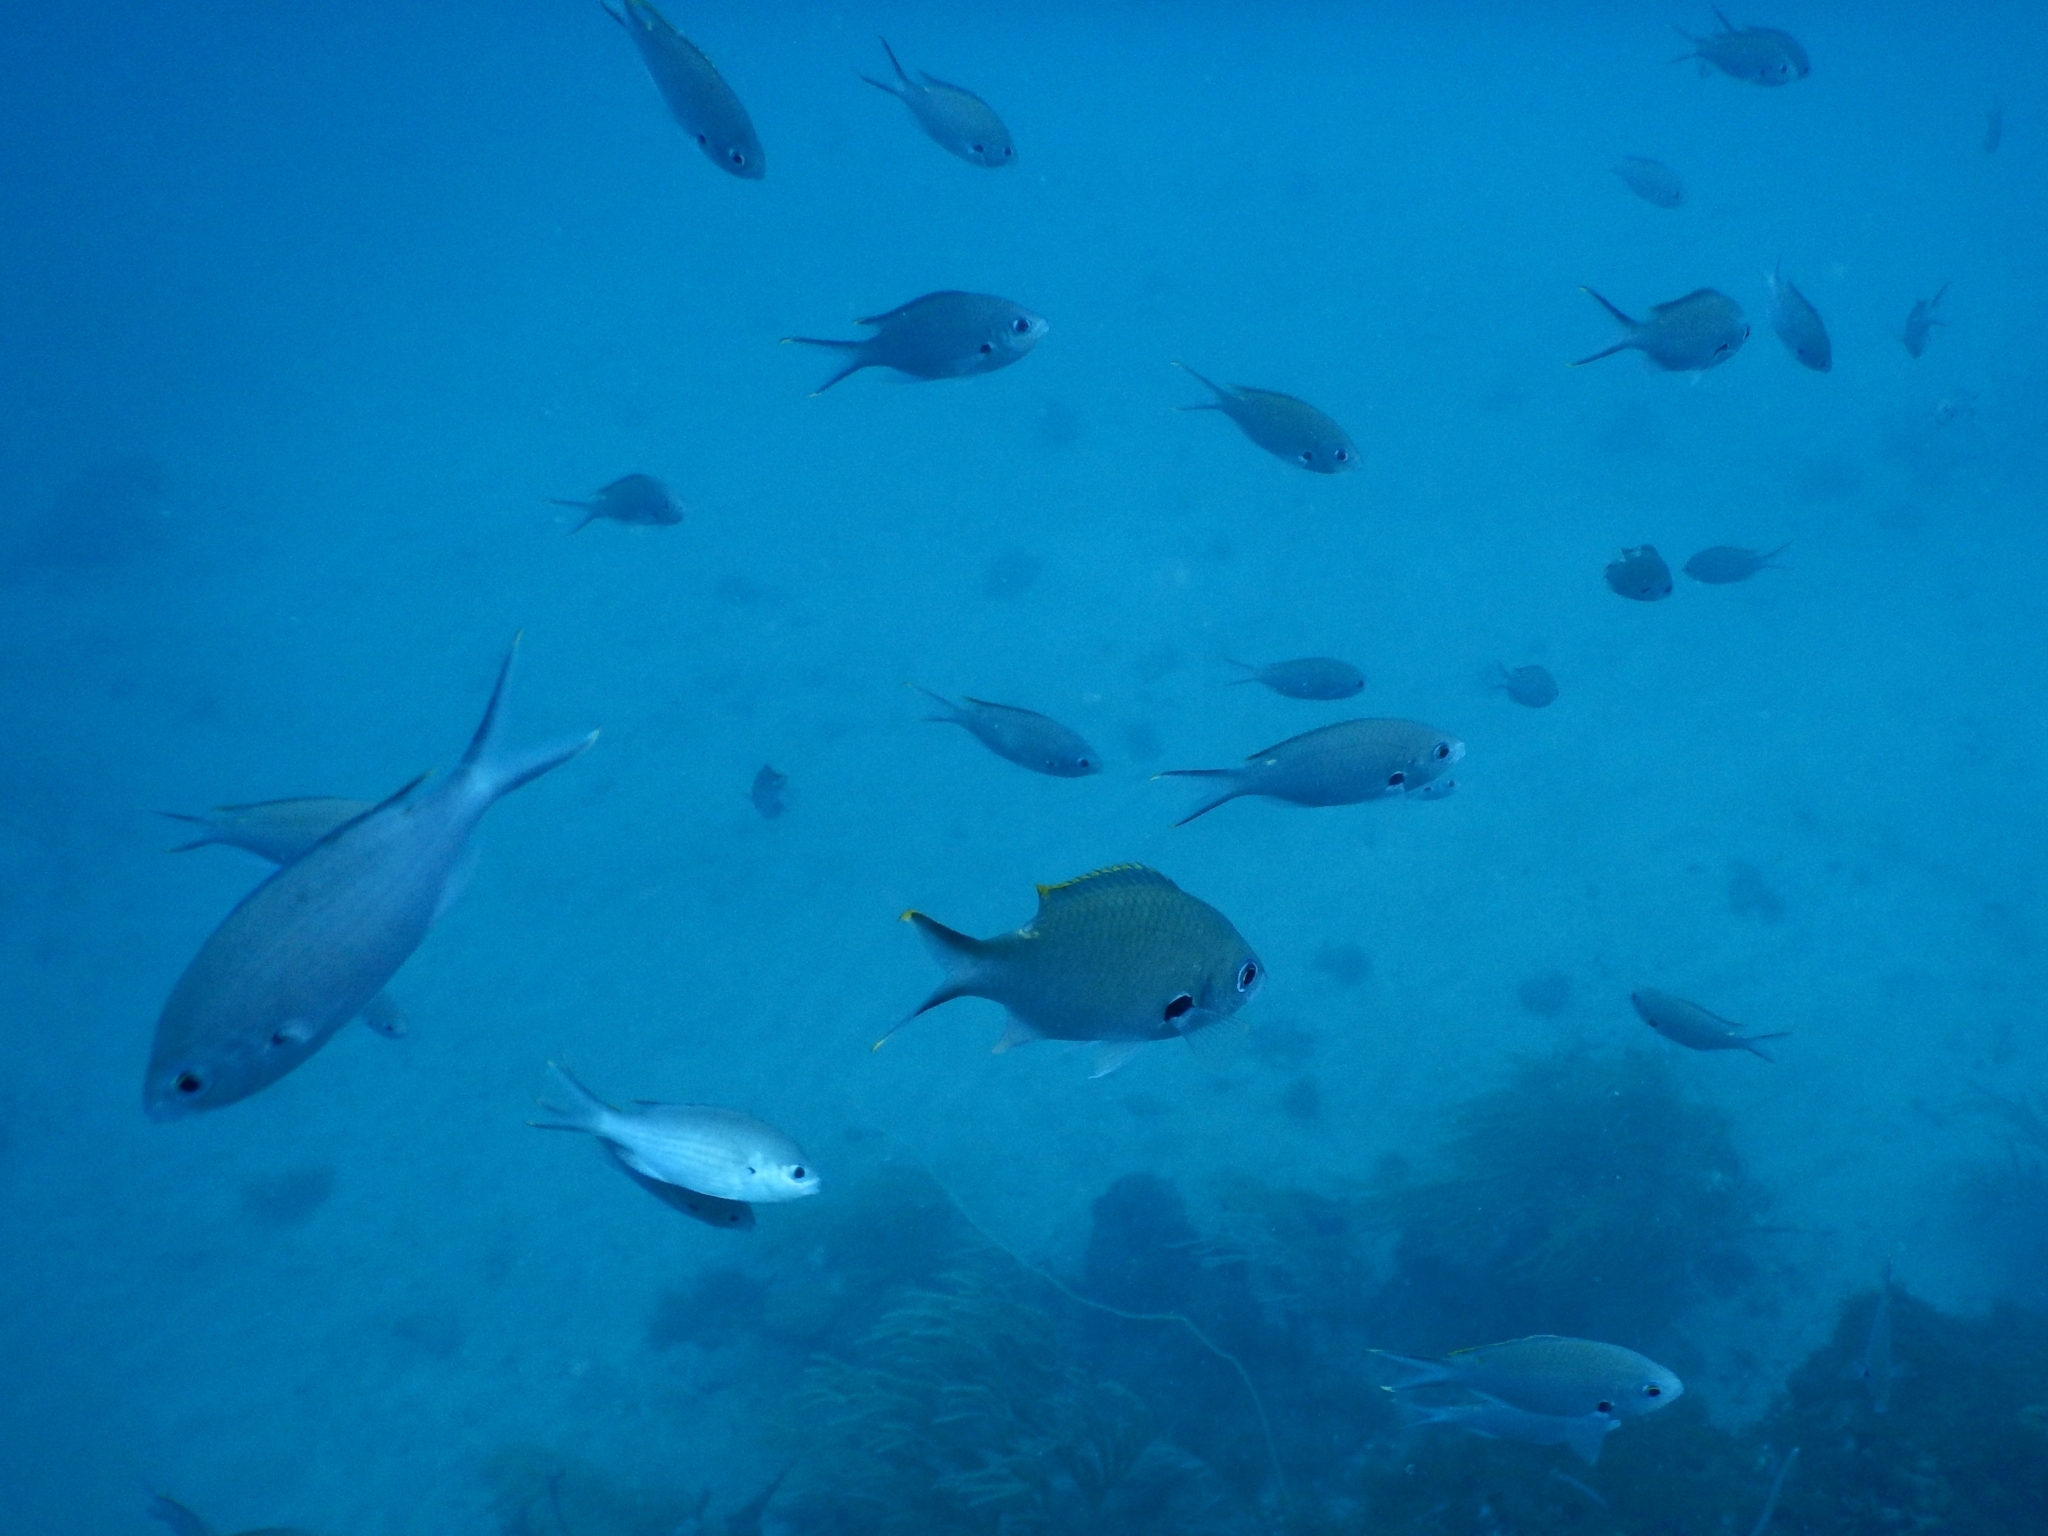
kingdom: Animalia
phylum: Chordata
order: Perciformes
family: Pomacentridae
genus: Chromis
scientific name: Chromis multilineata
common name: Brown chromis
